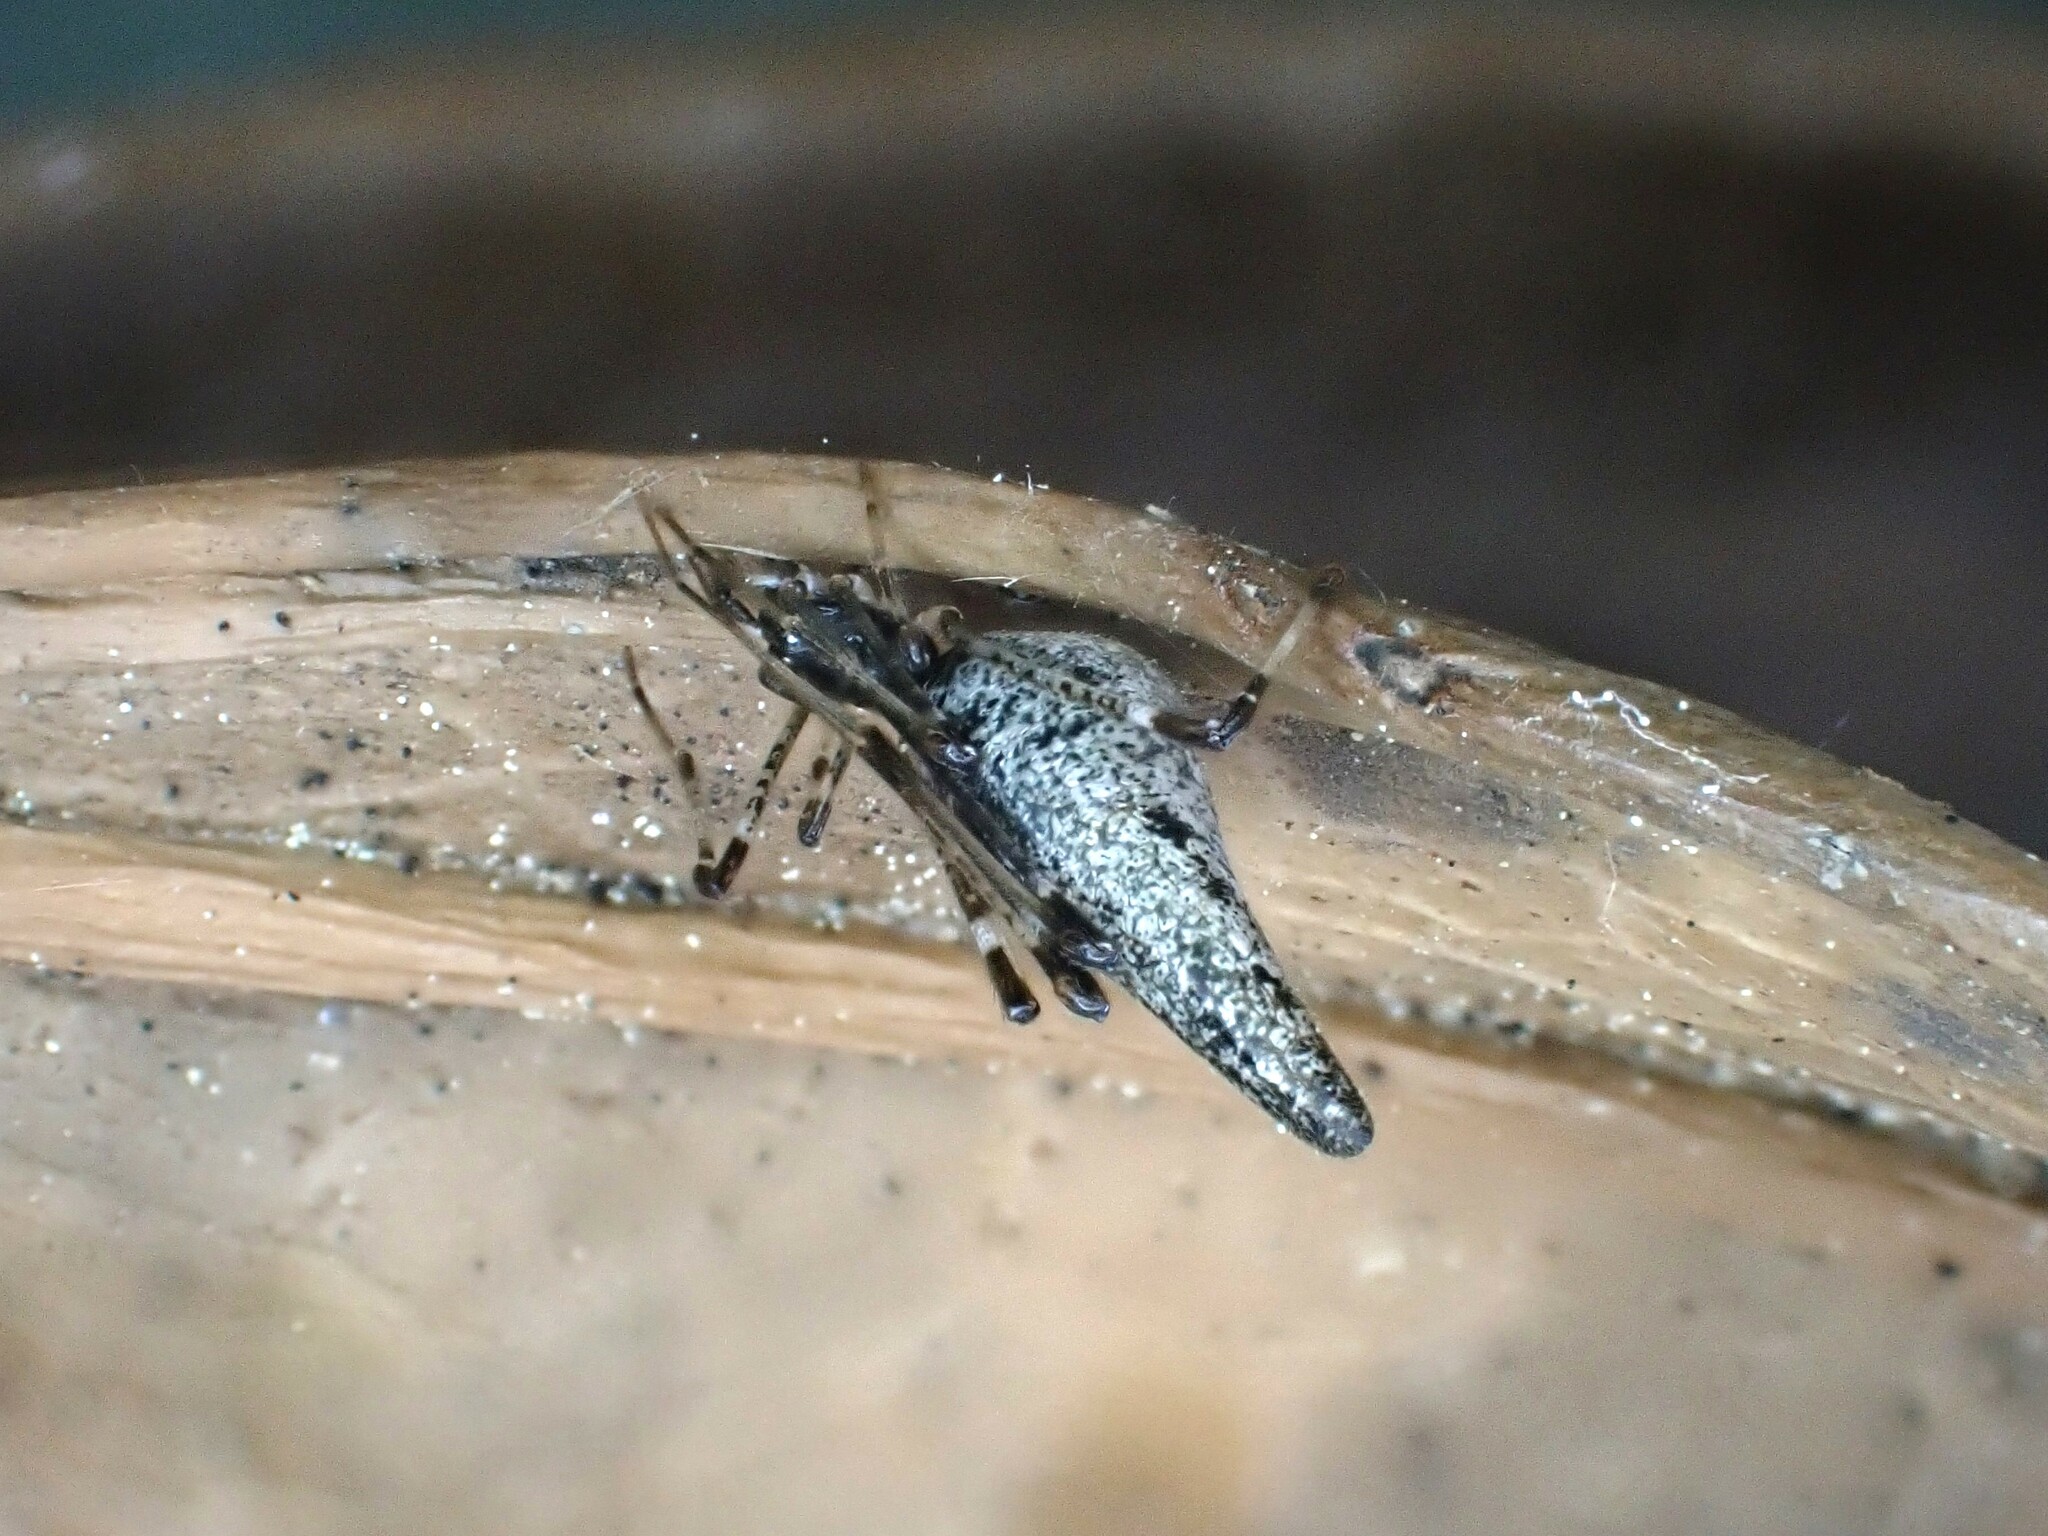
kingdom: Animalia
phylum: Arthropoda
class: Arachnida
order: Araneae
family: Theridiidae
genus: Rhomphaea
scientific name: Rhomphaea urquharti
